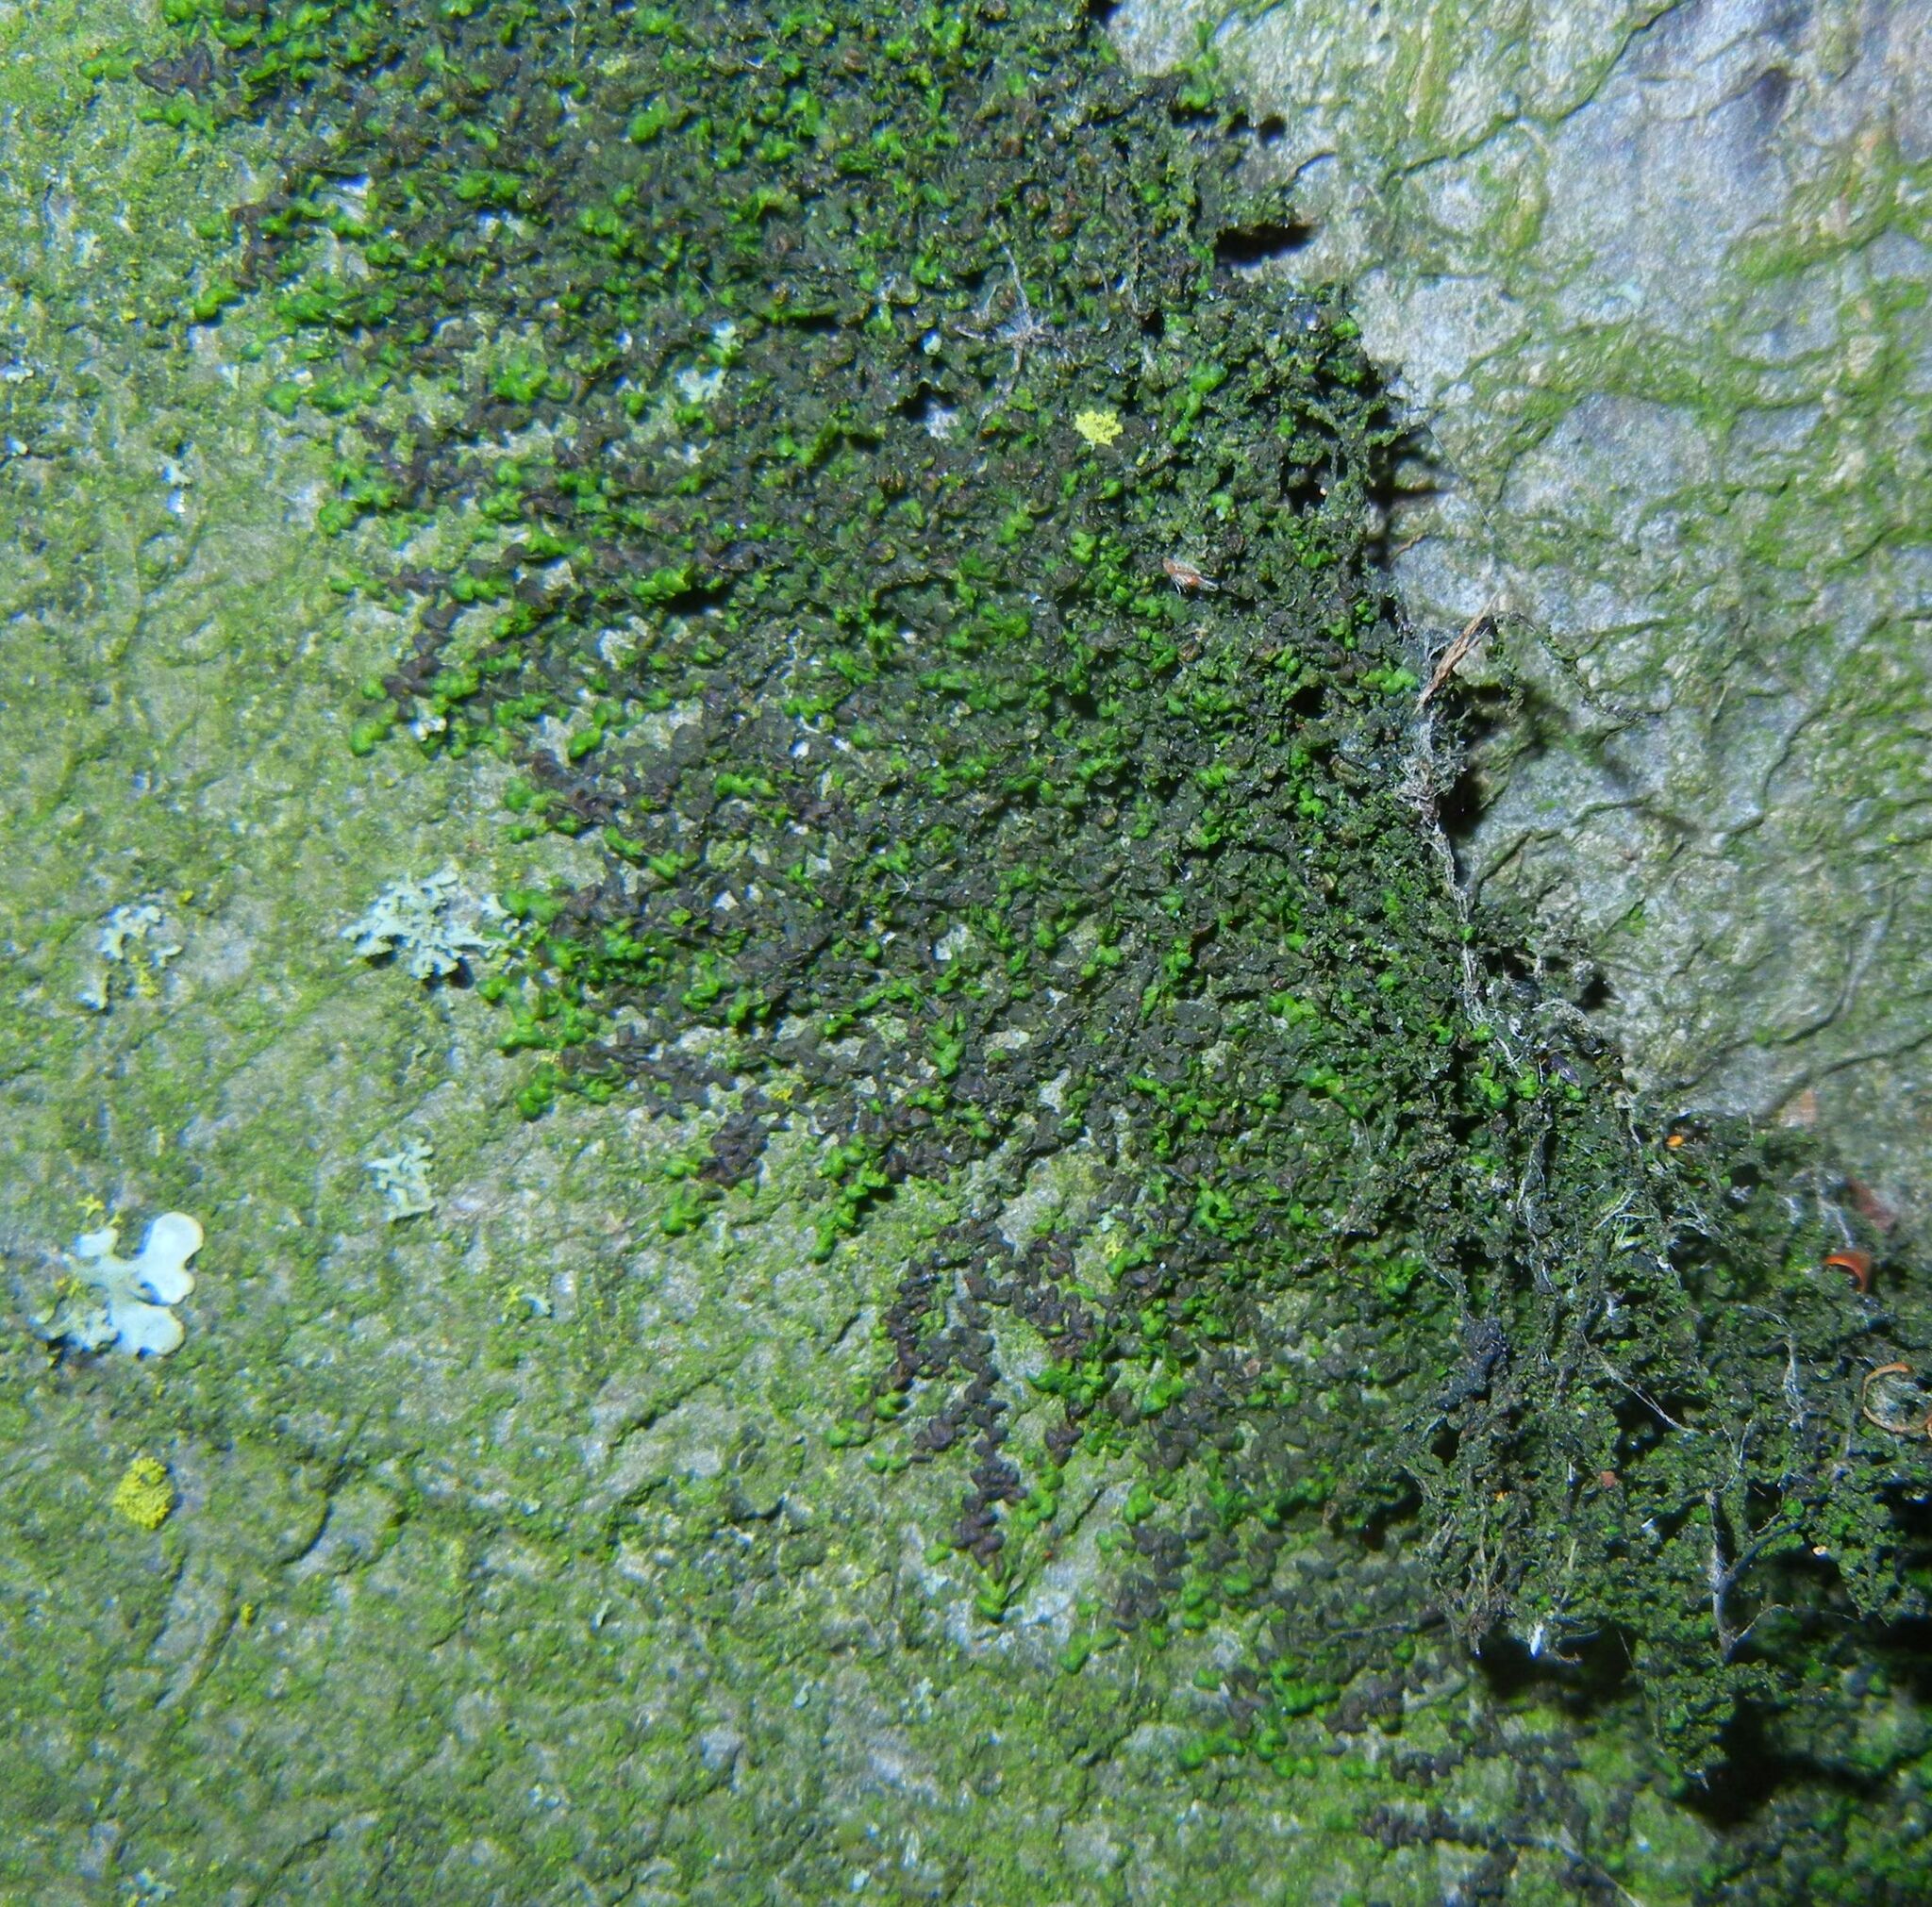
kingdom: Plantae
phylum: Marchantiophyta
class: Jungermanniopsida
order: Porellales
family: Frullaniaceae
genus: Frullania
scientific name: Frullania dilatata
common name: Dilated scalewort
